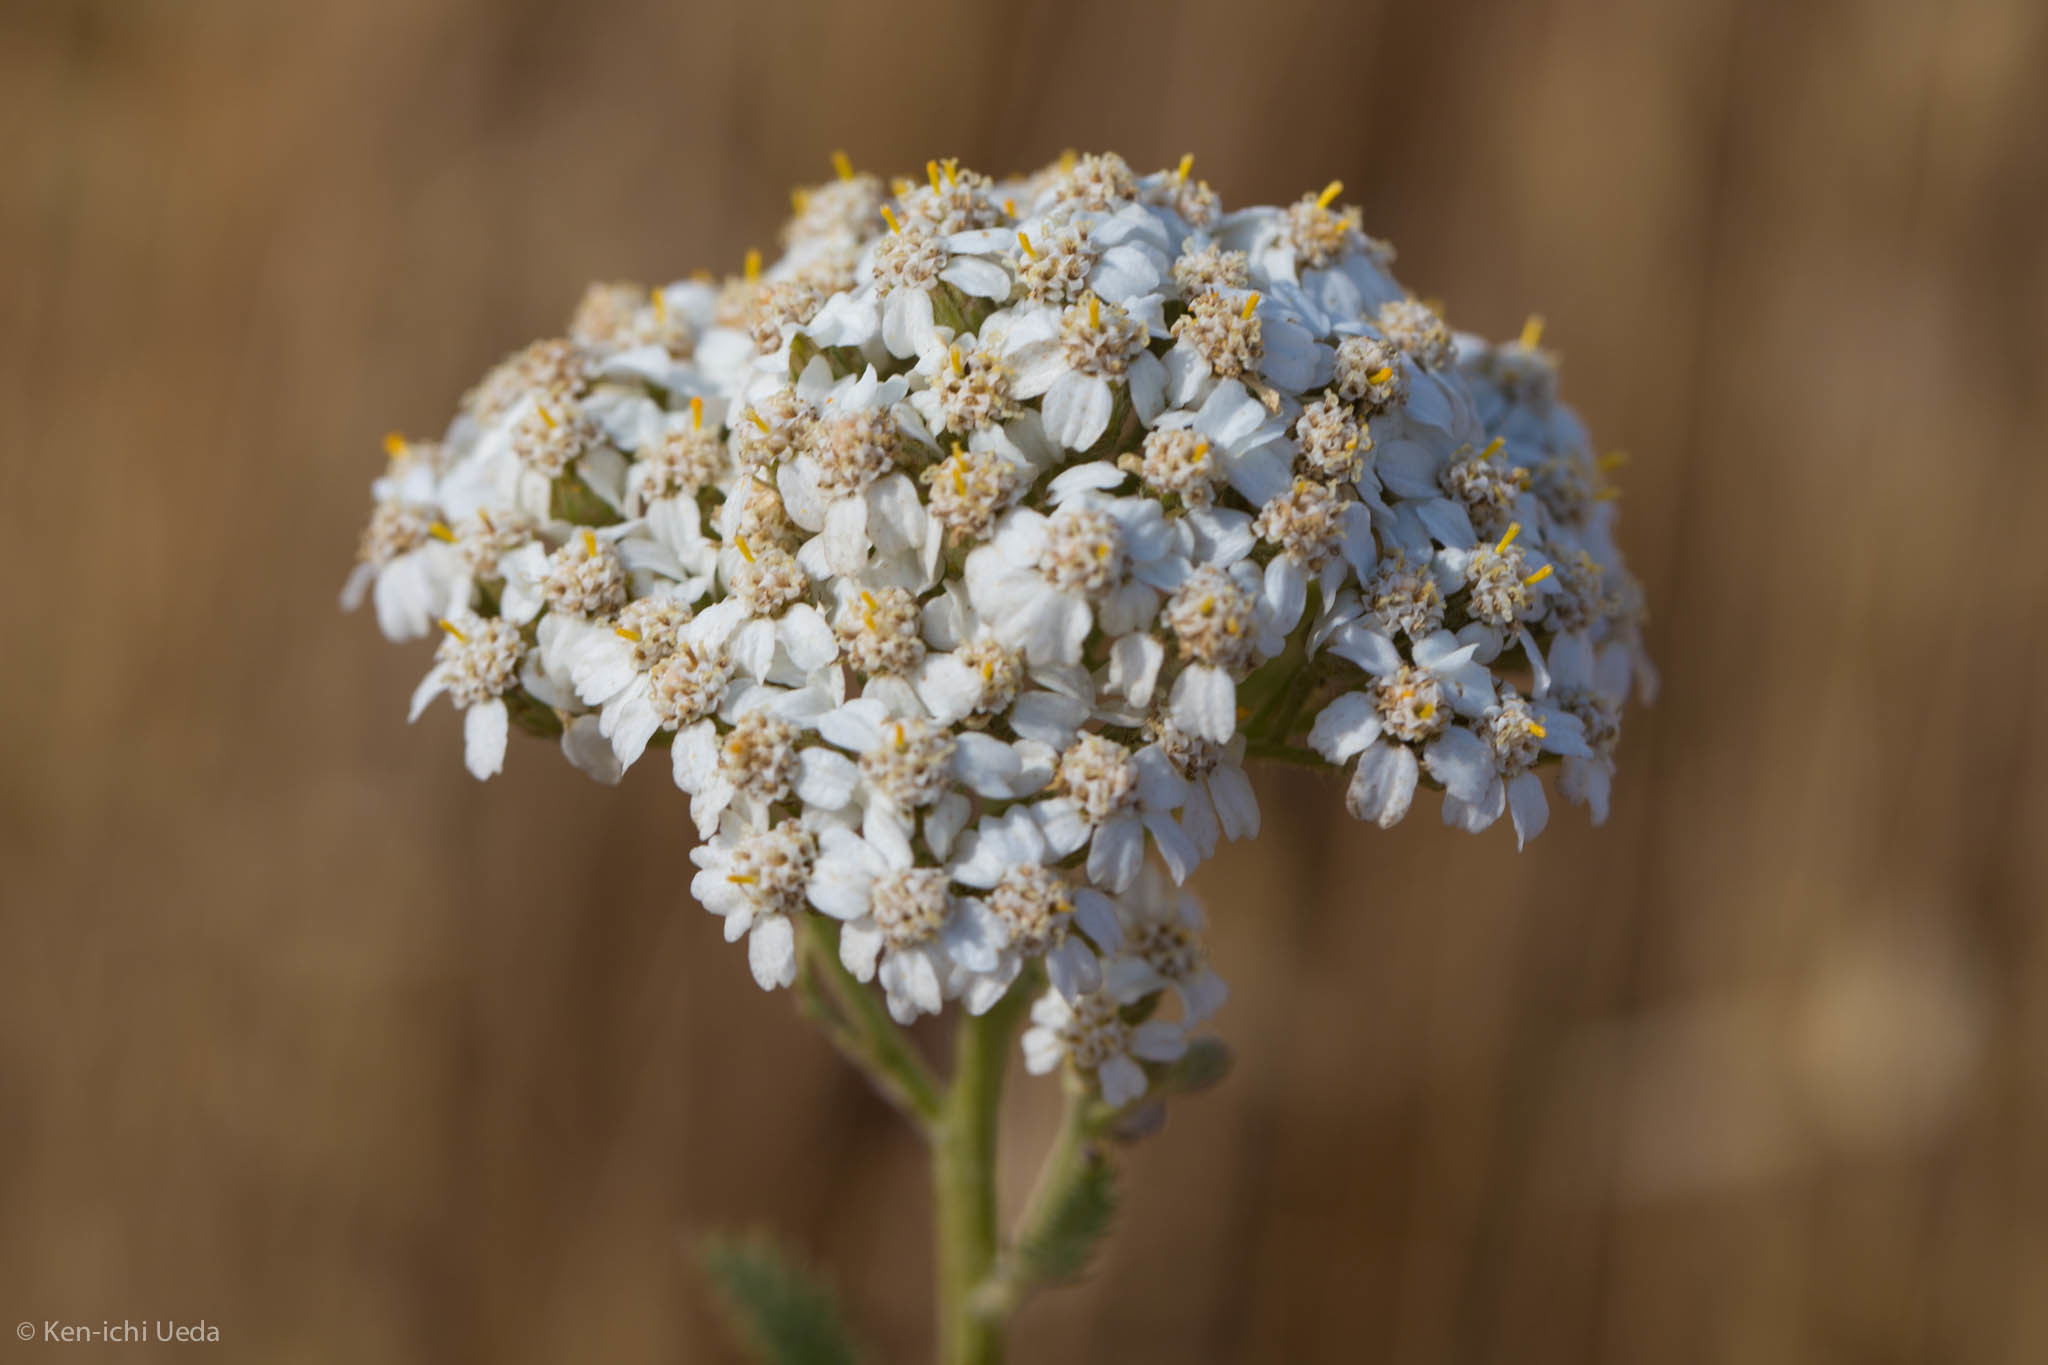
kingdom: Plantae
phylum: Tracheophyta
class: Magnoliopsida
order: Asterales
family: Asteraceae
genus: Achillea
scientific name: Achillea millefolium
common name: Yarrow
